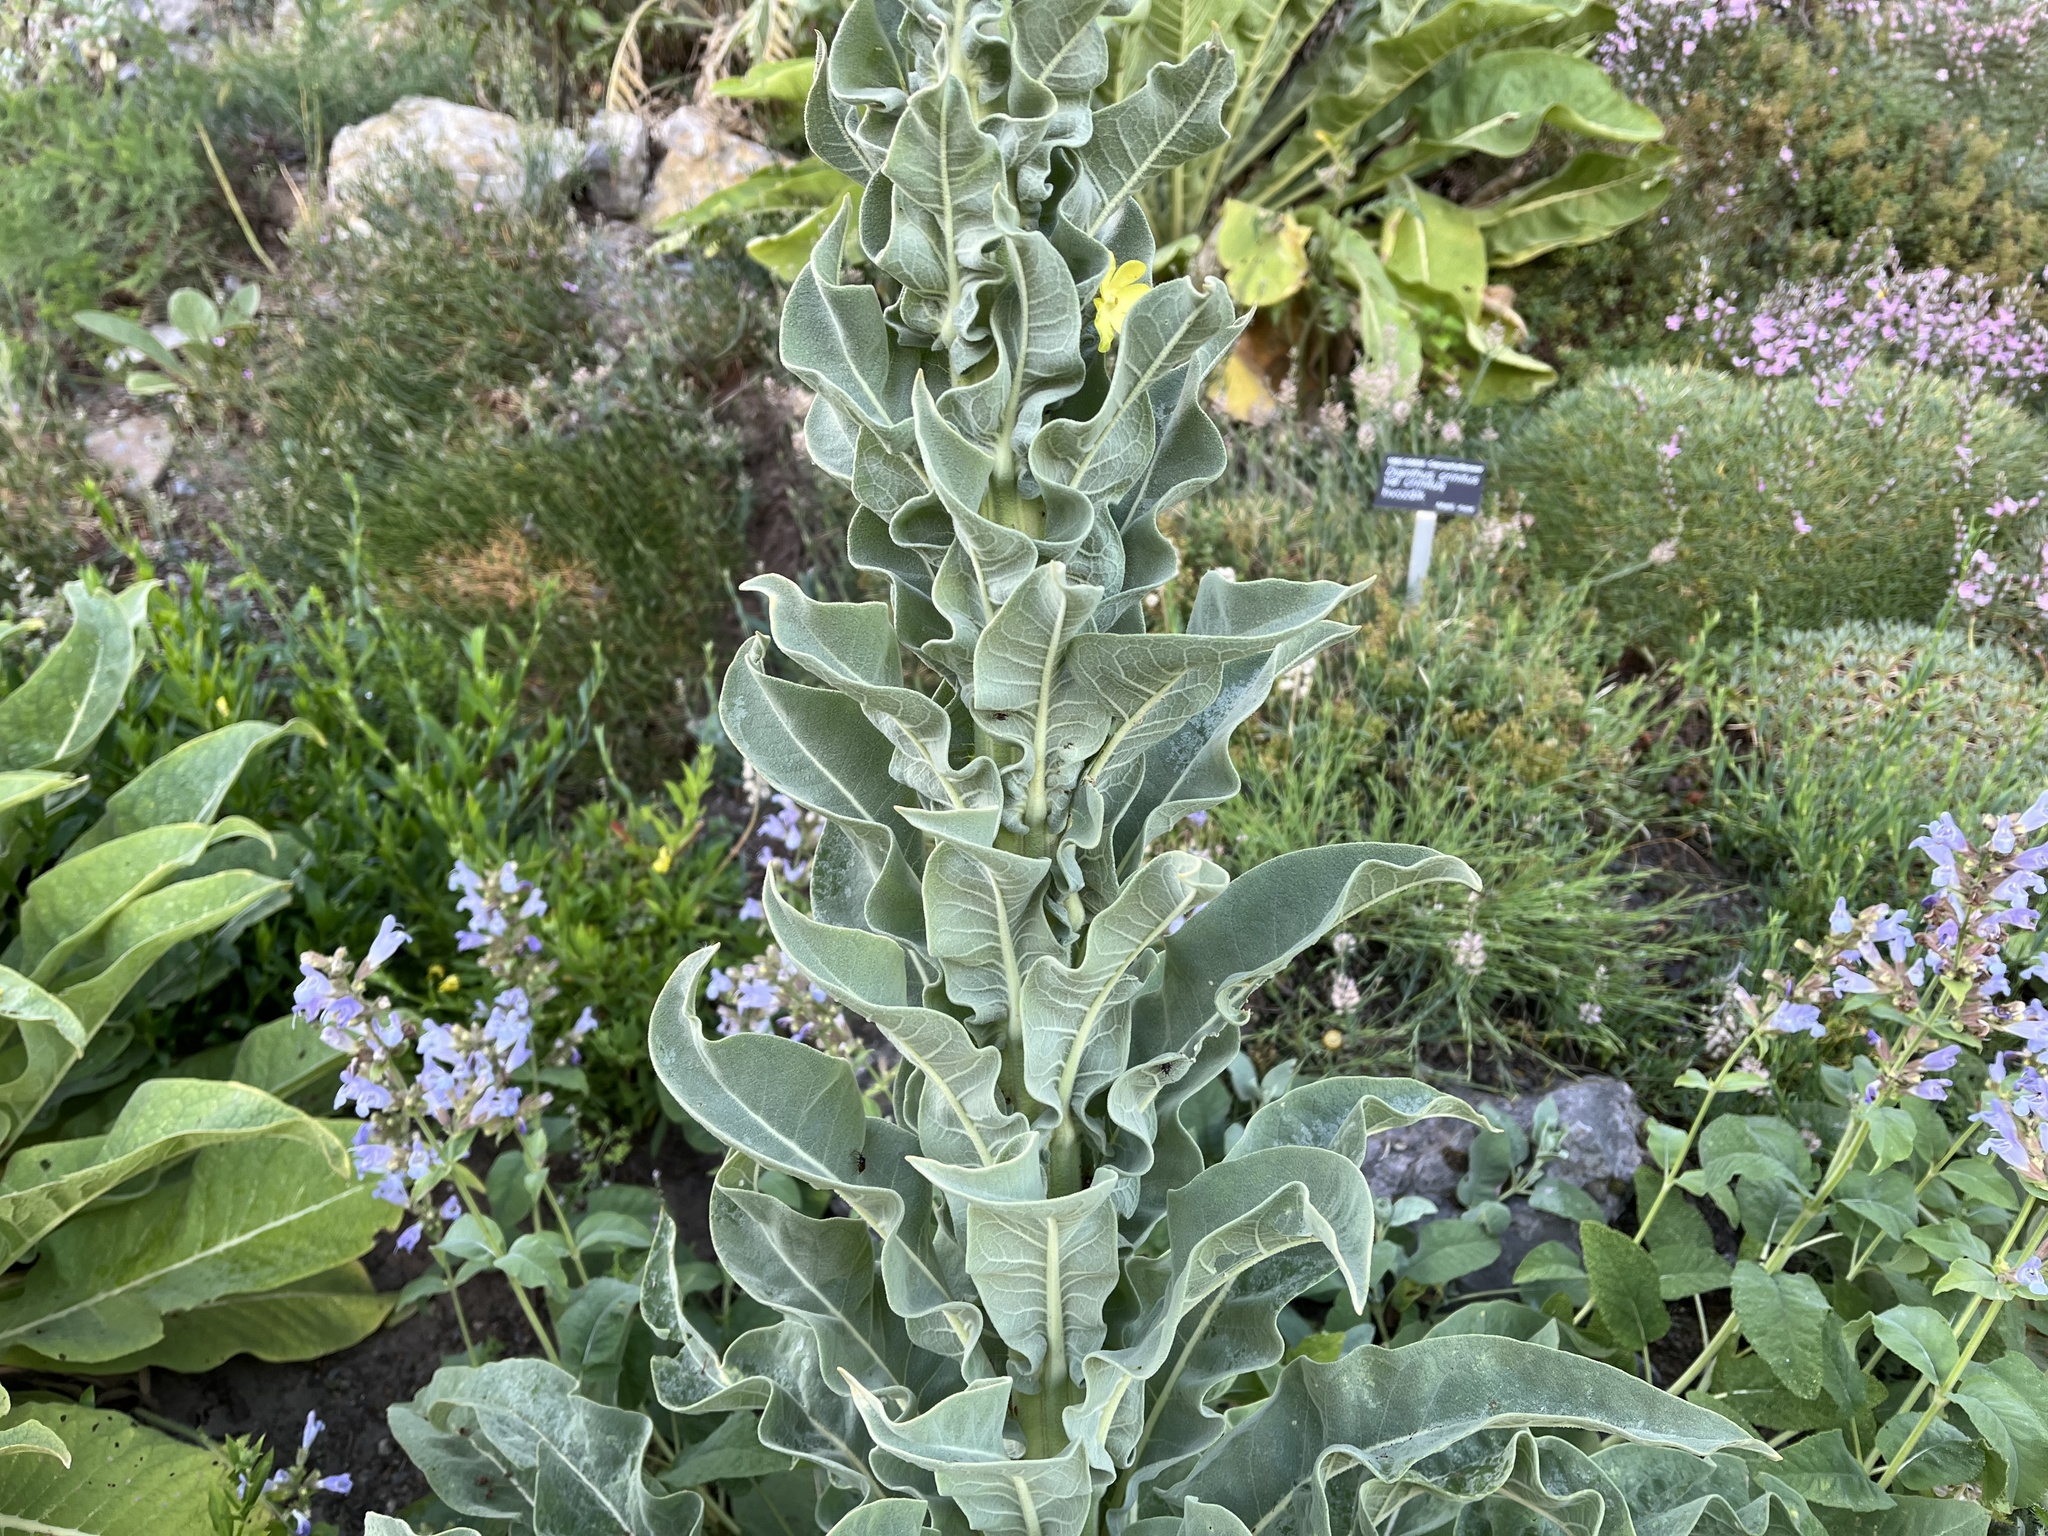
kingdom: Plantae
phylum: Tracheophyta
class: Magnoliopsida
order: Lamiales
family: Scrophulariaceae
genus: Verbascum
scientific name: Verbascum speciosum
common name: Hungarian mullein
